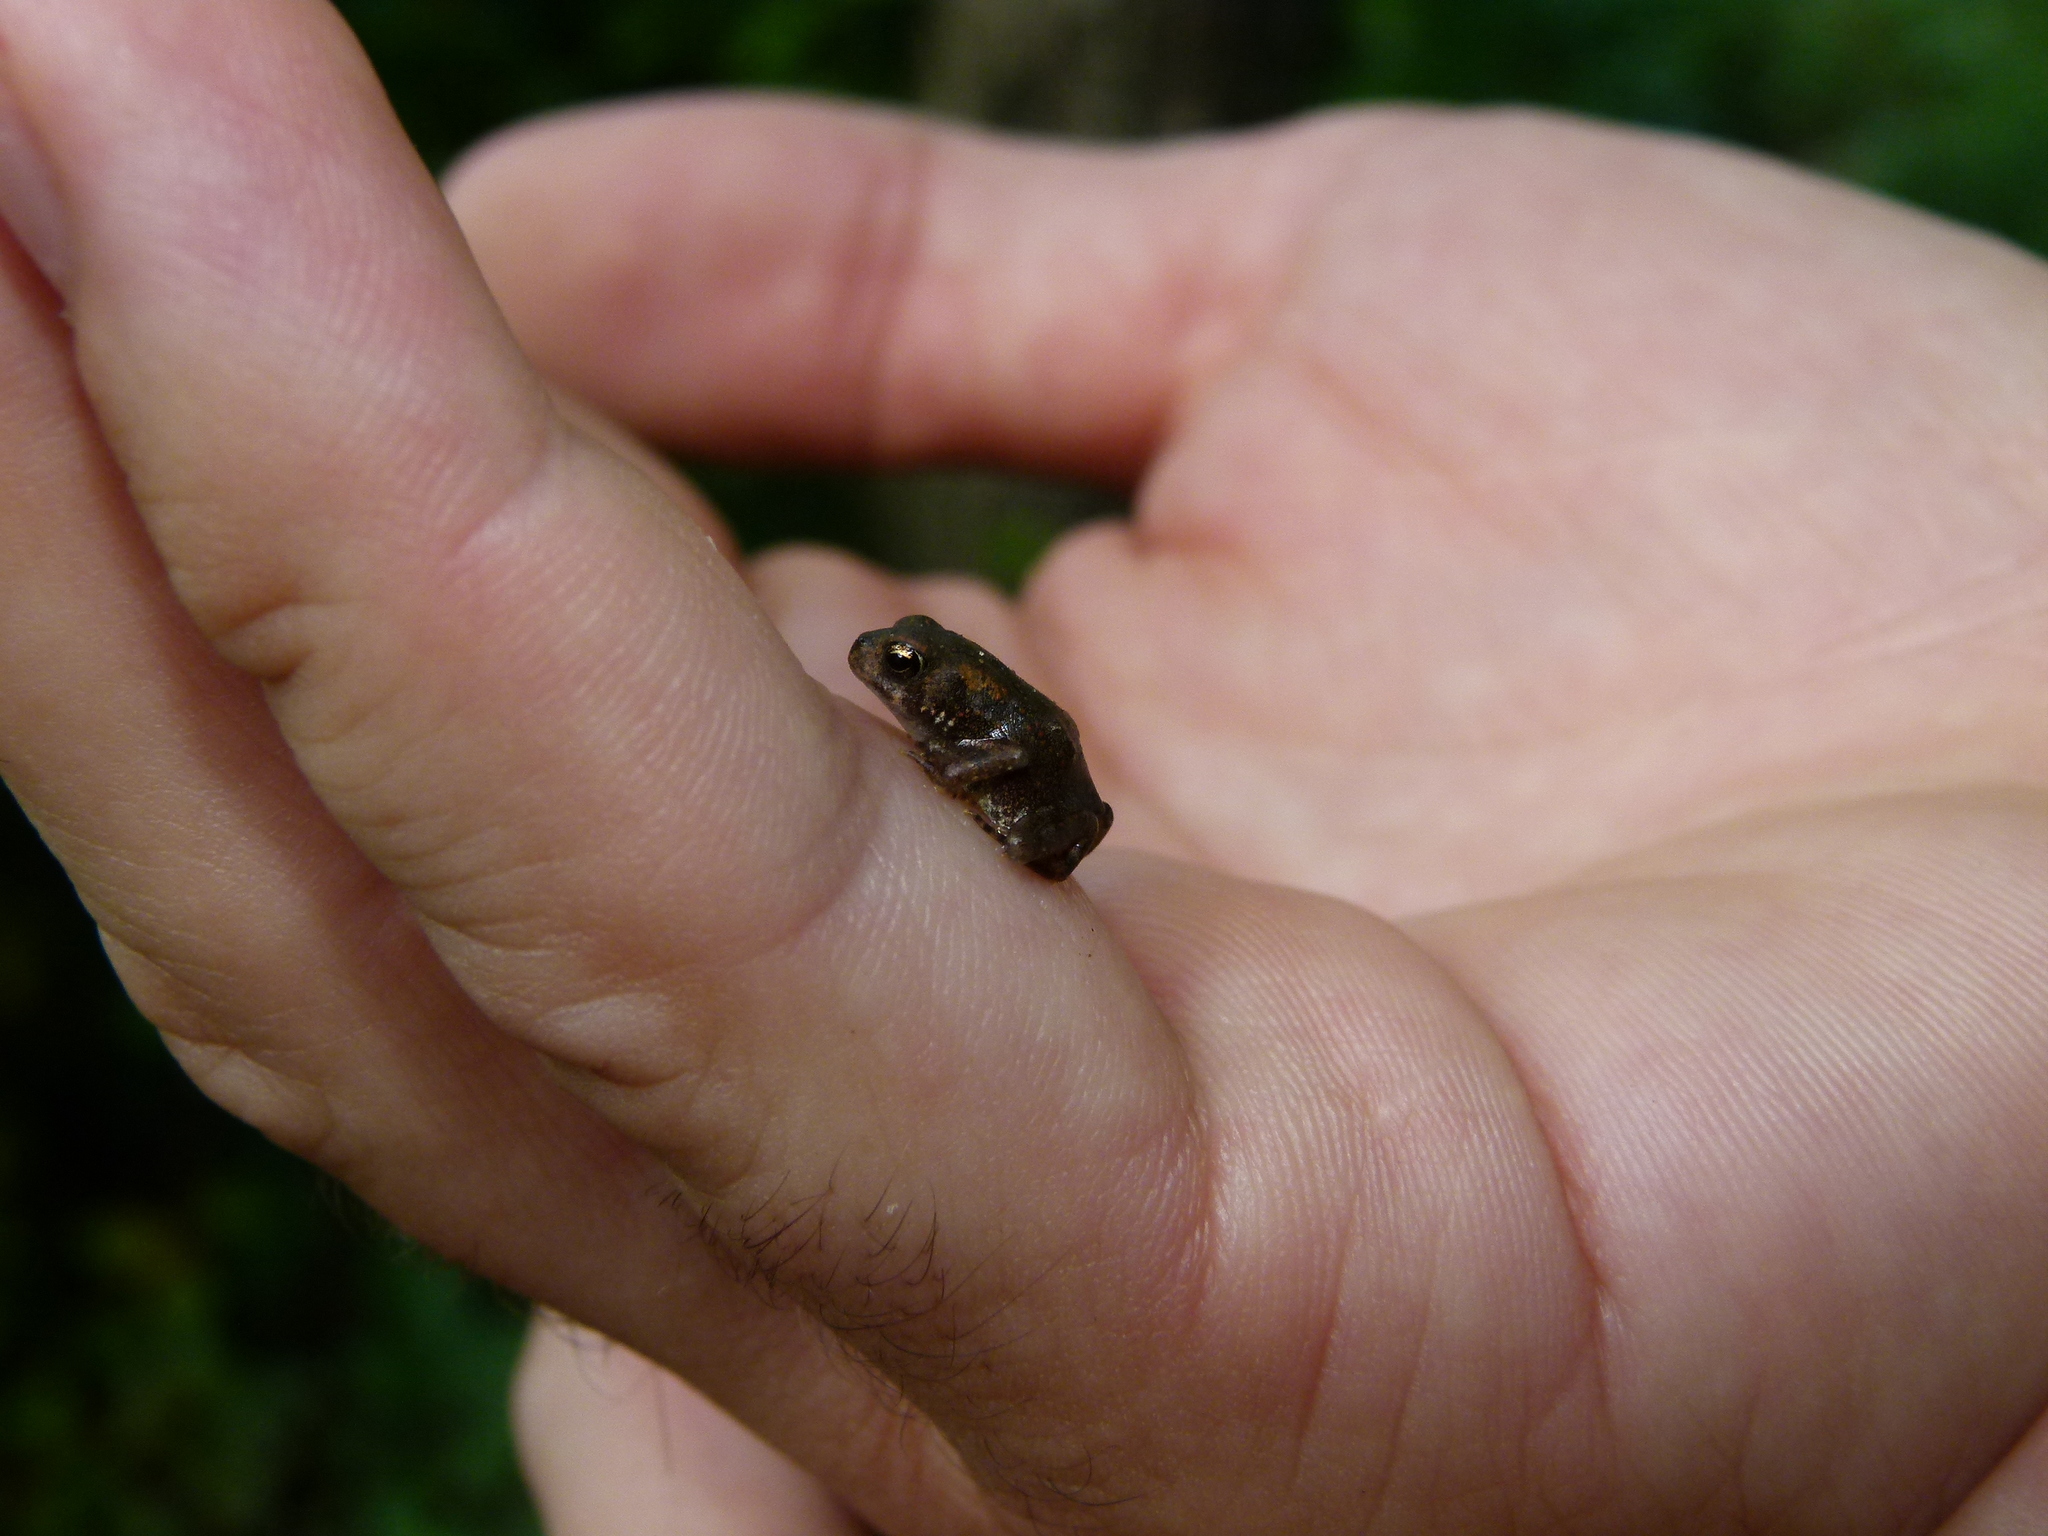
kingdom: Animalia
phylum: Chordata
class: Amphibia
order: Anura
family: Bufonidae
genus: Anaxyrus
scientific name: Anaxyrus
